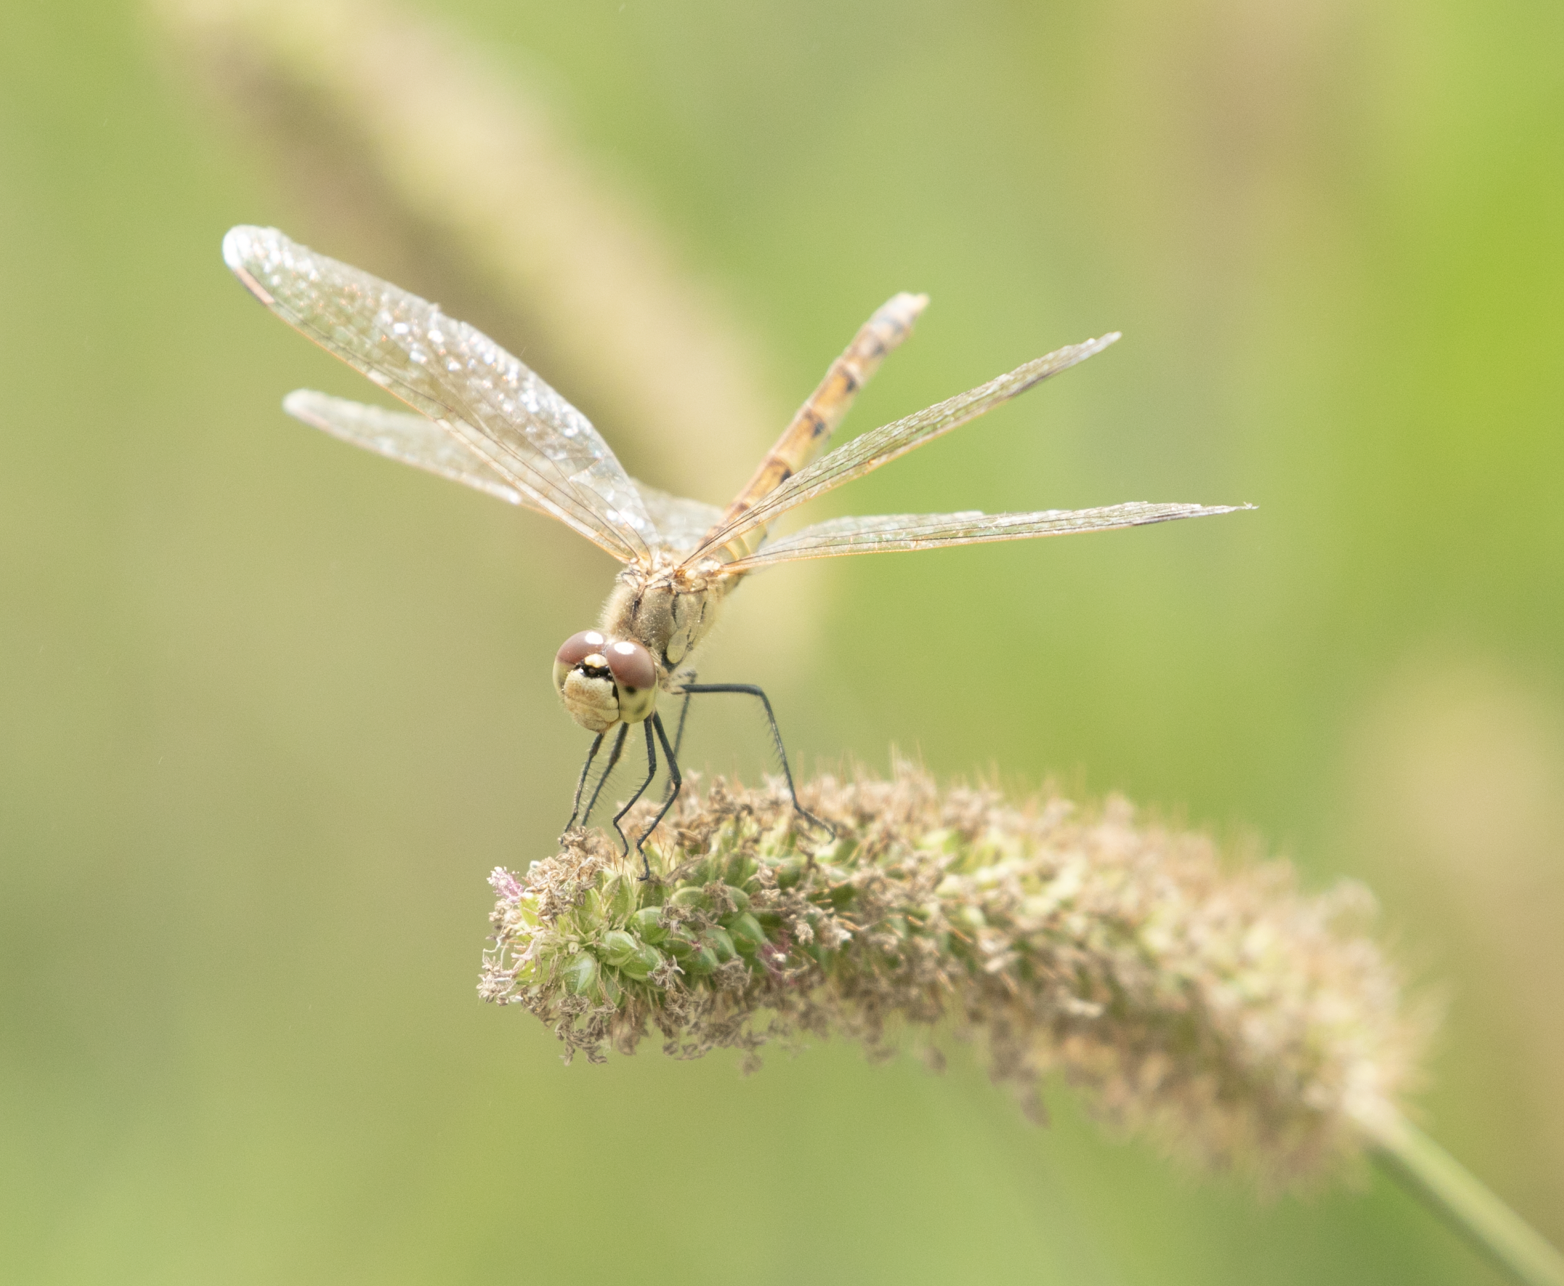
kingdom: Animalia
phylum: Arthropoda
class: Insecta
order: Odonata
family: Libellulidae
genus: Sympetrum
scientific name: Sympetrum depressiusculum
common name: Spotted darter
